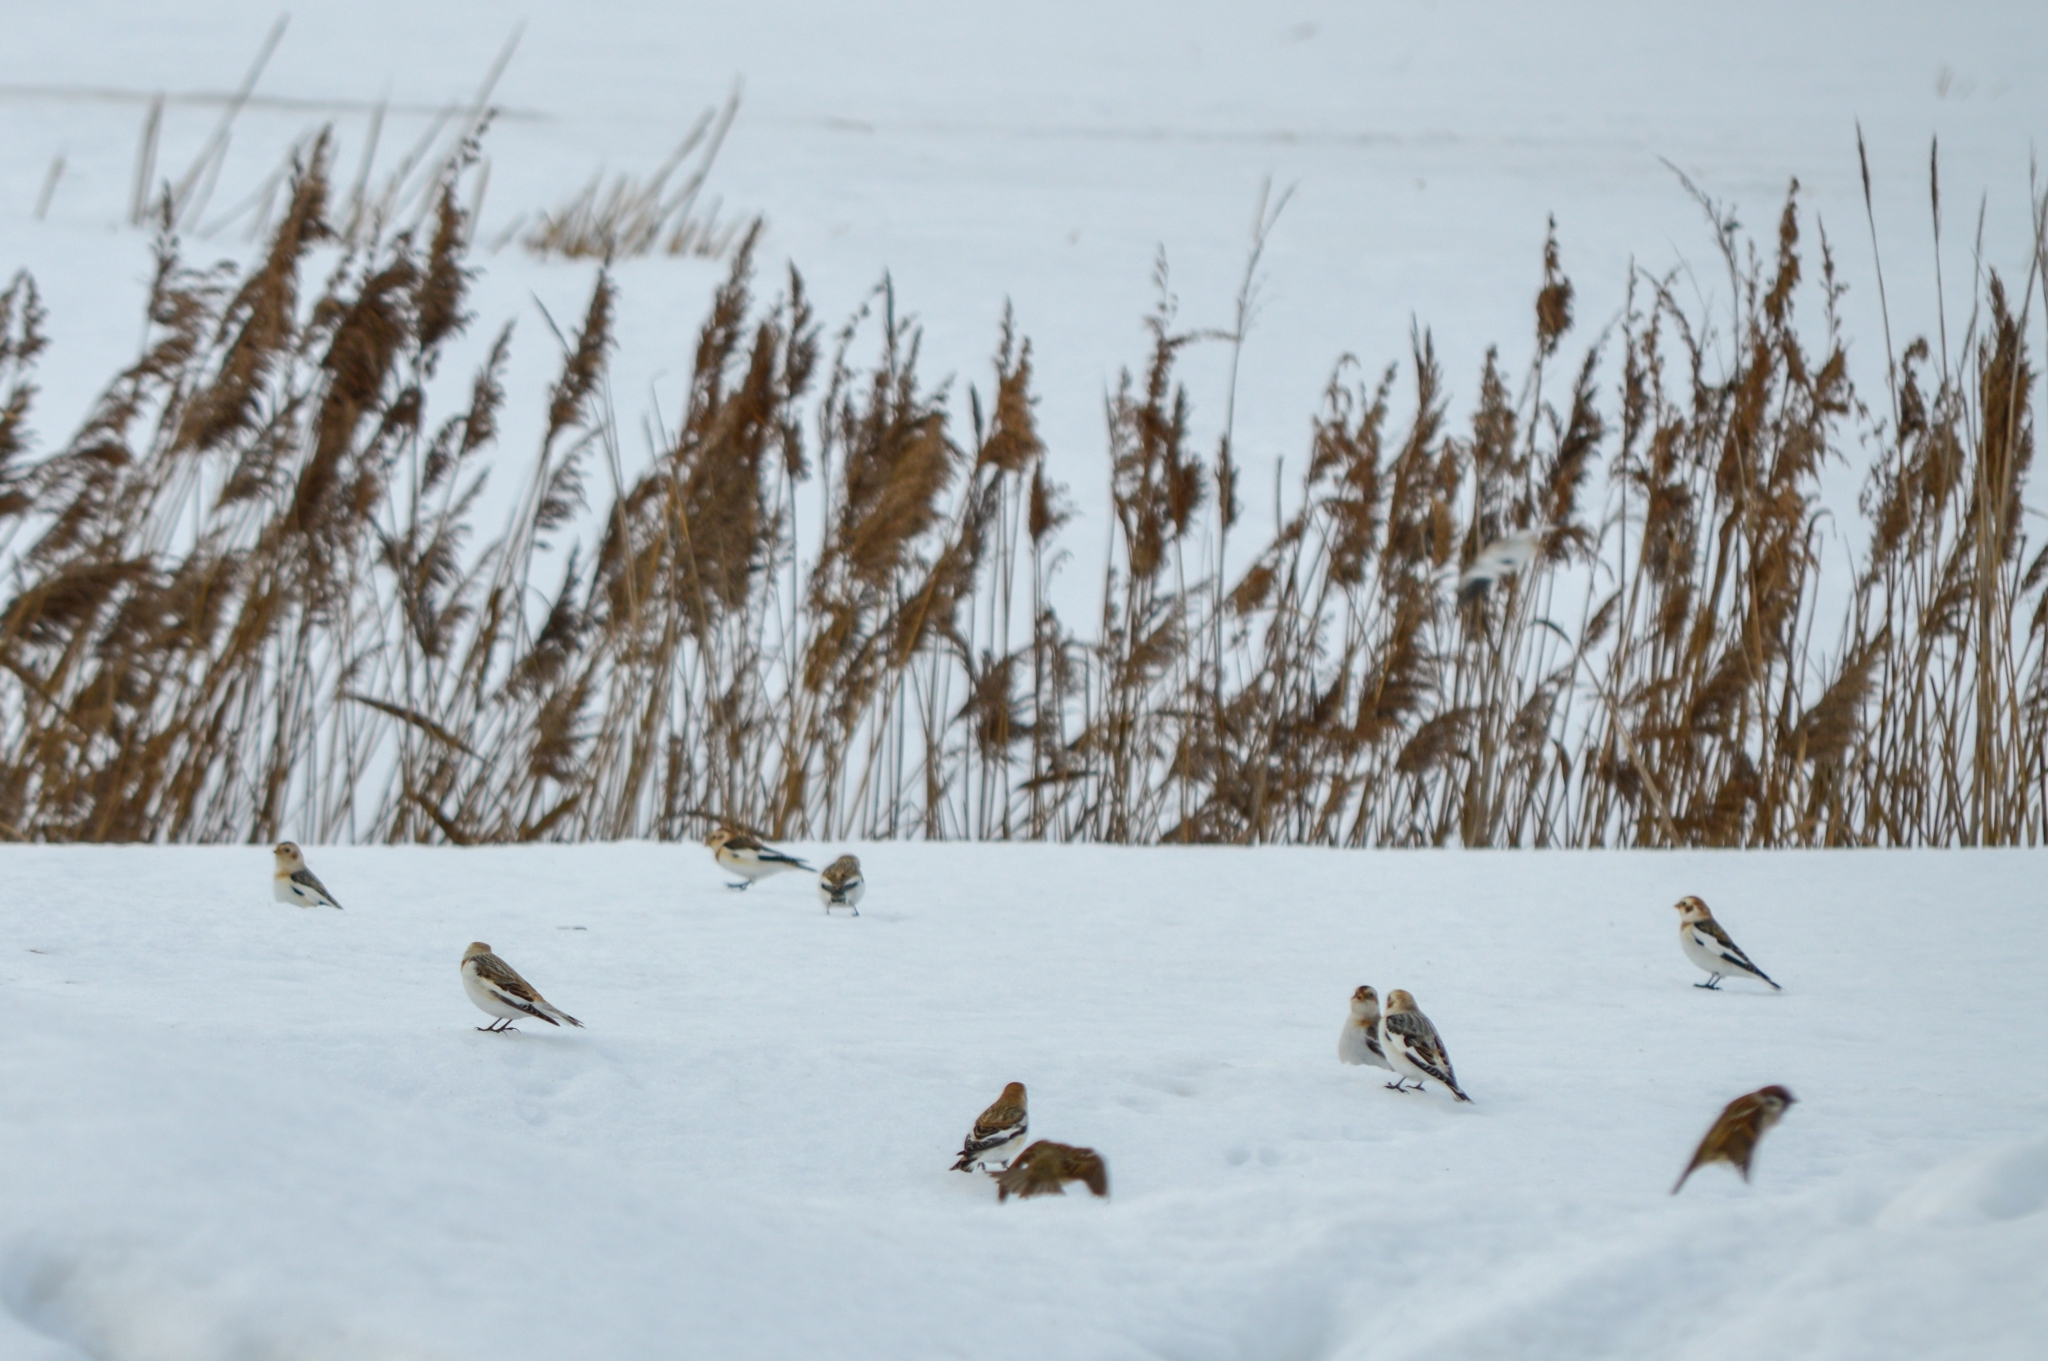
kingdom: Animalia
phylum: Chordata
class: Aves
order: Passeriformes
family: Calcariidae
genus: Plectrophenax
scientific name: Plectrophenax nivalis
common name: Snow bunting
